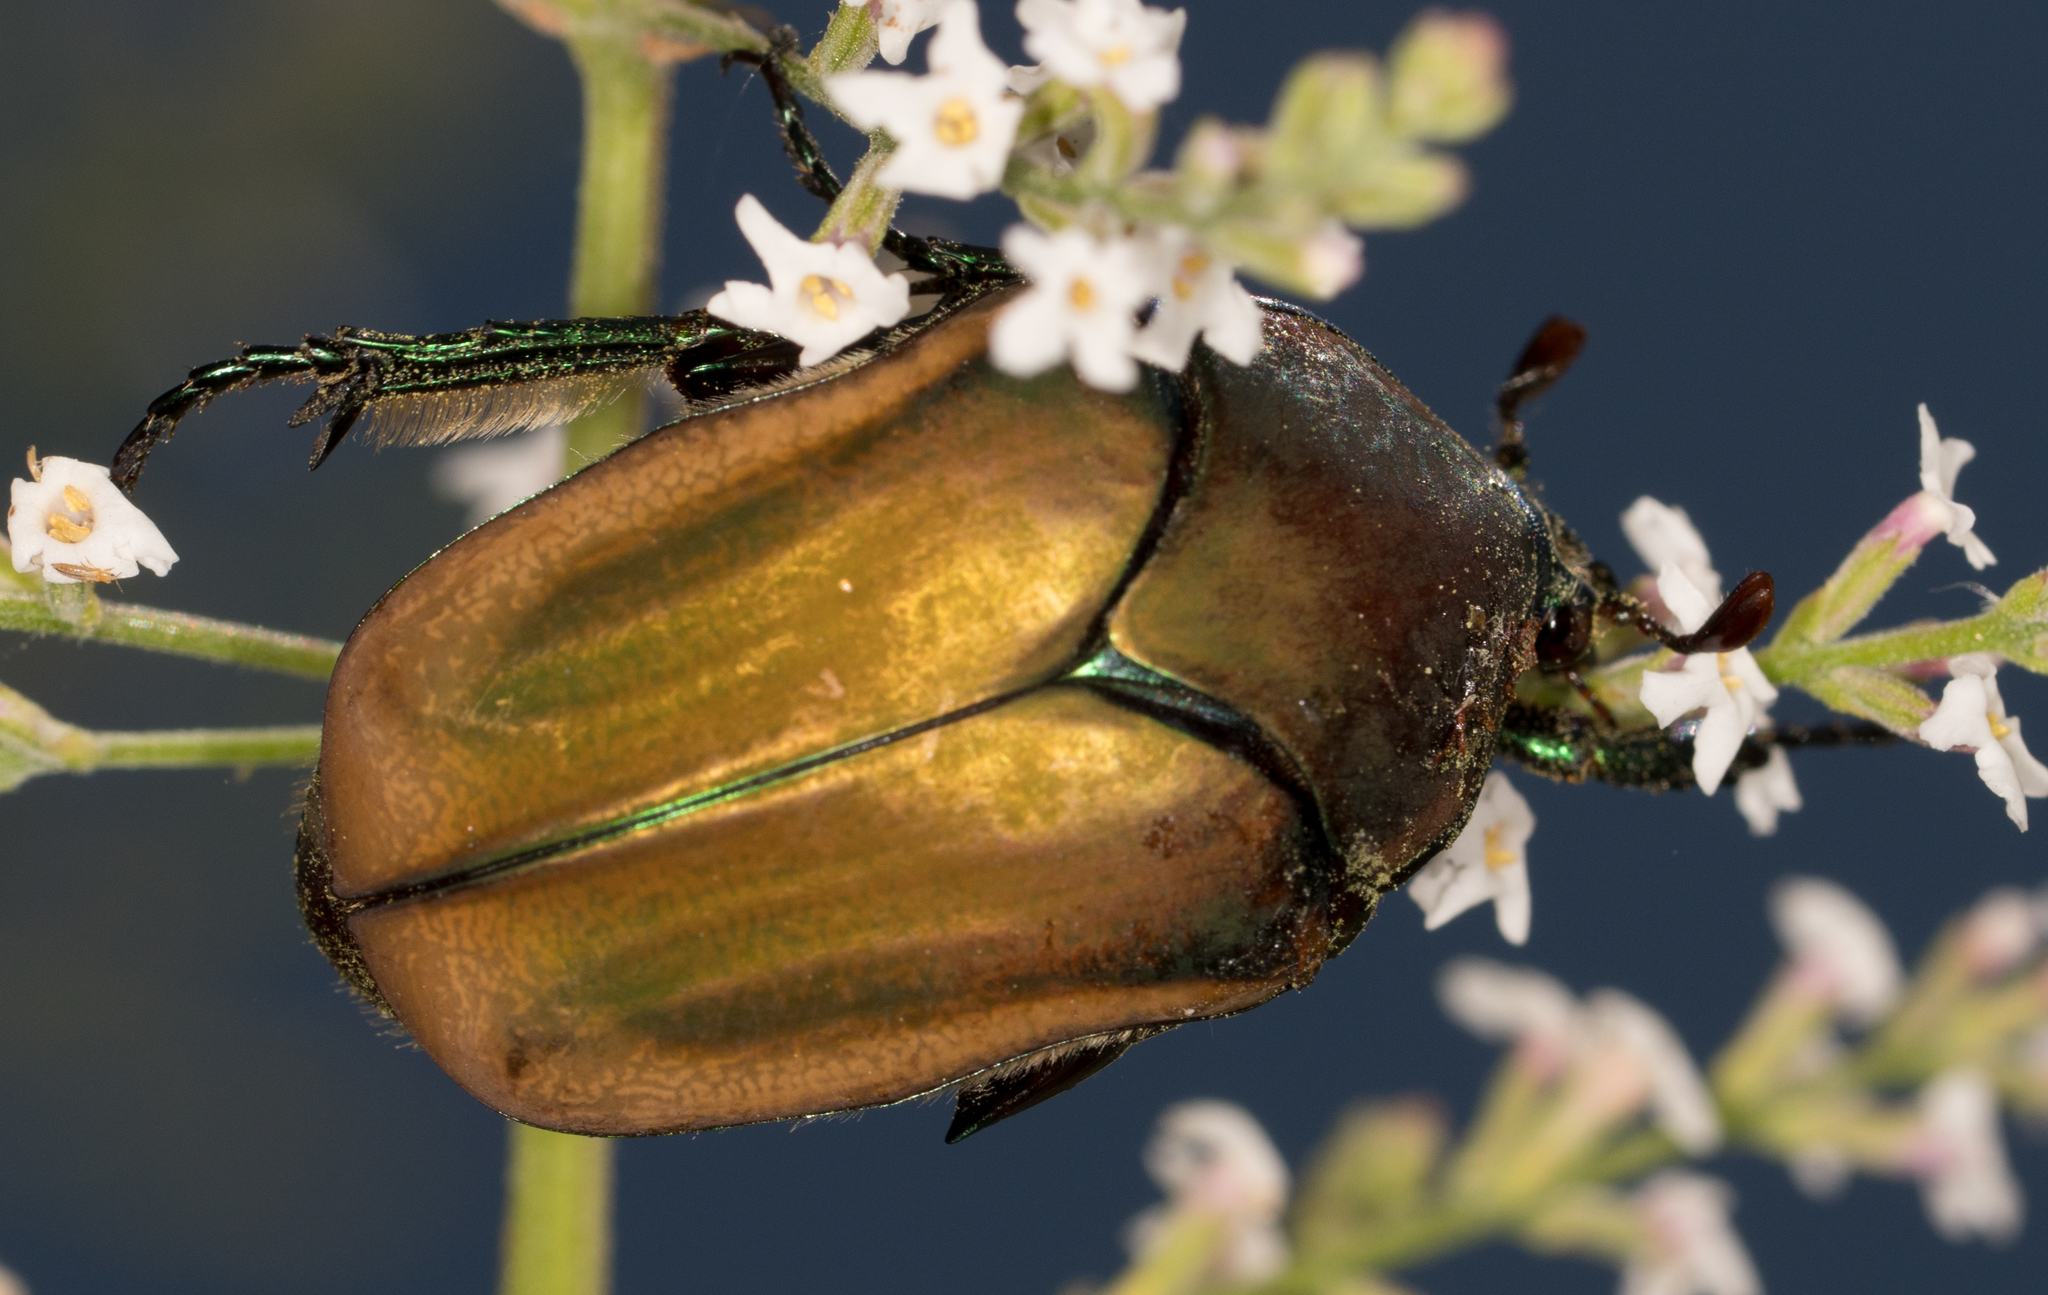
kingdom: Animalia
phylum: Arthropoda
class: Insecta
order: Coleoptera
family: Scarabaeidae
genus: Cotinis
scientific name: Cotinis mutabilis
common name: Figeater beetle
